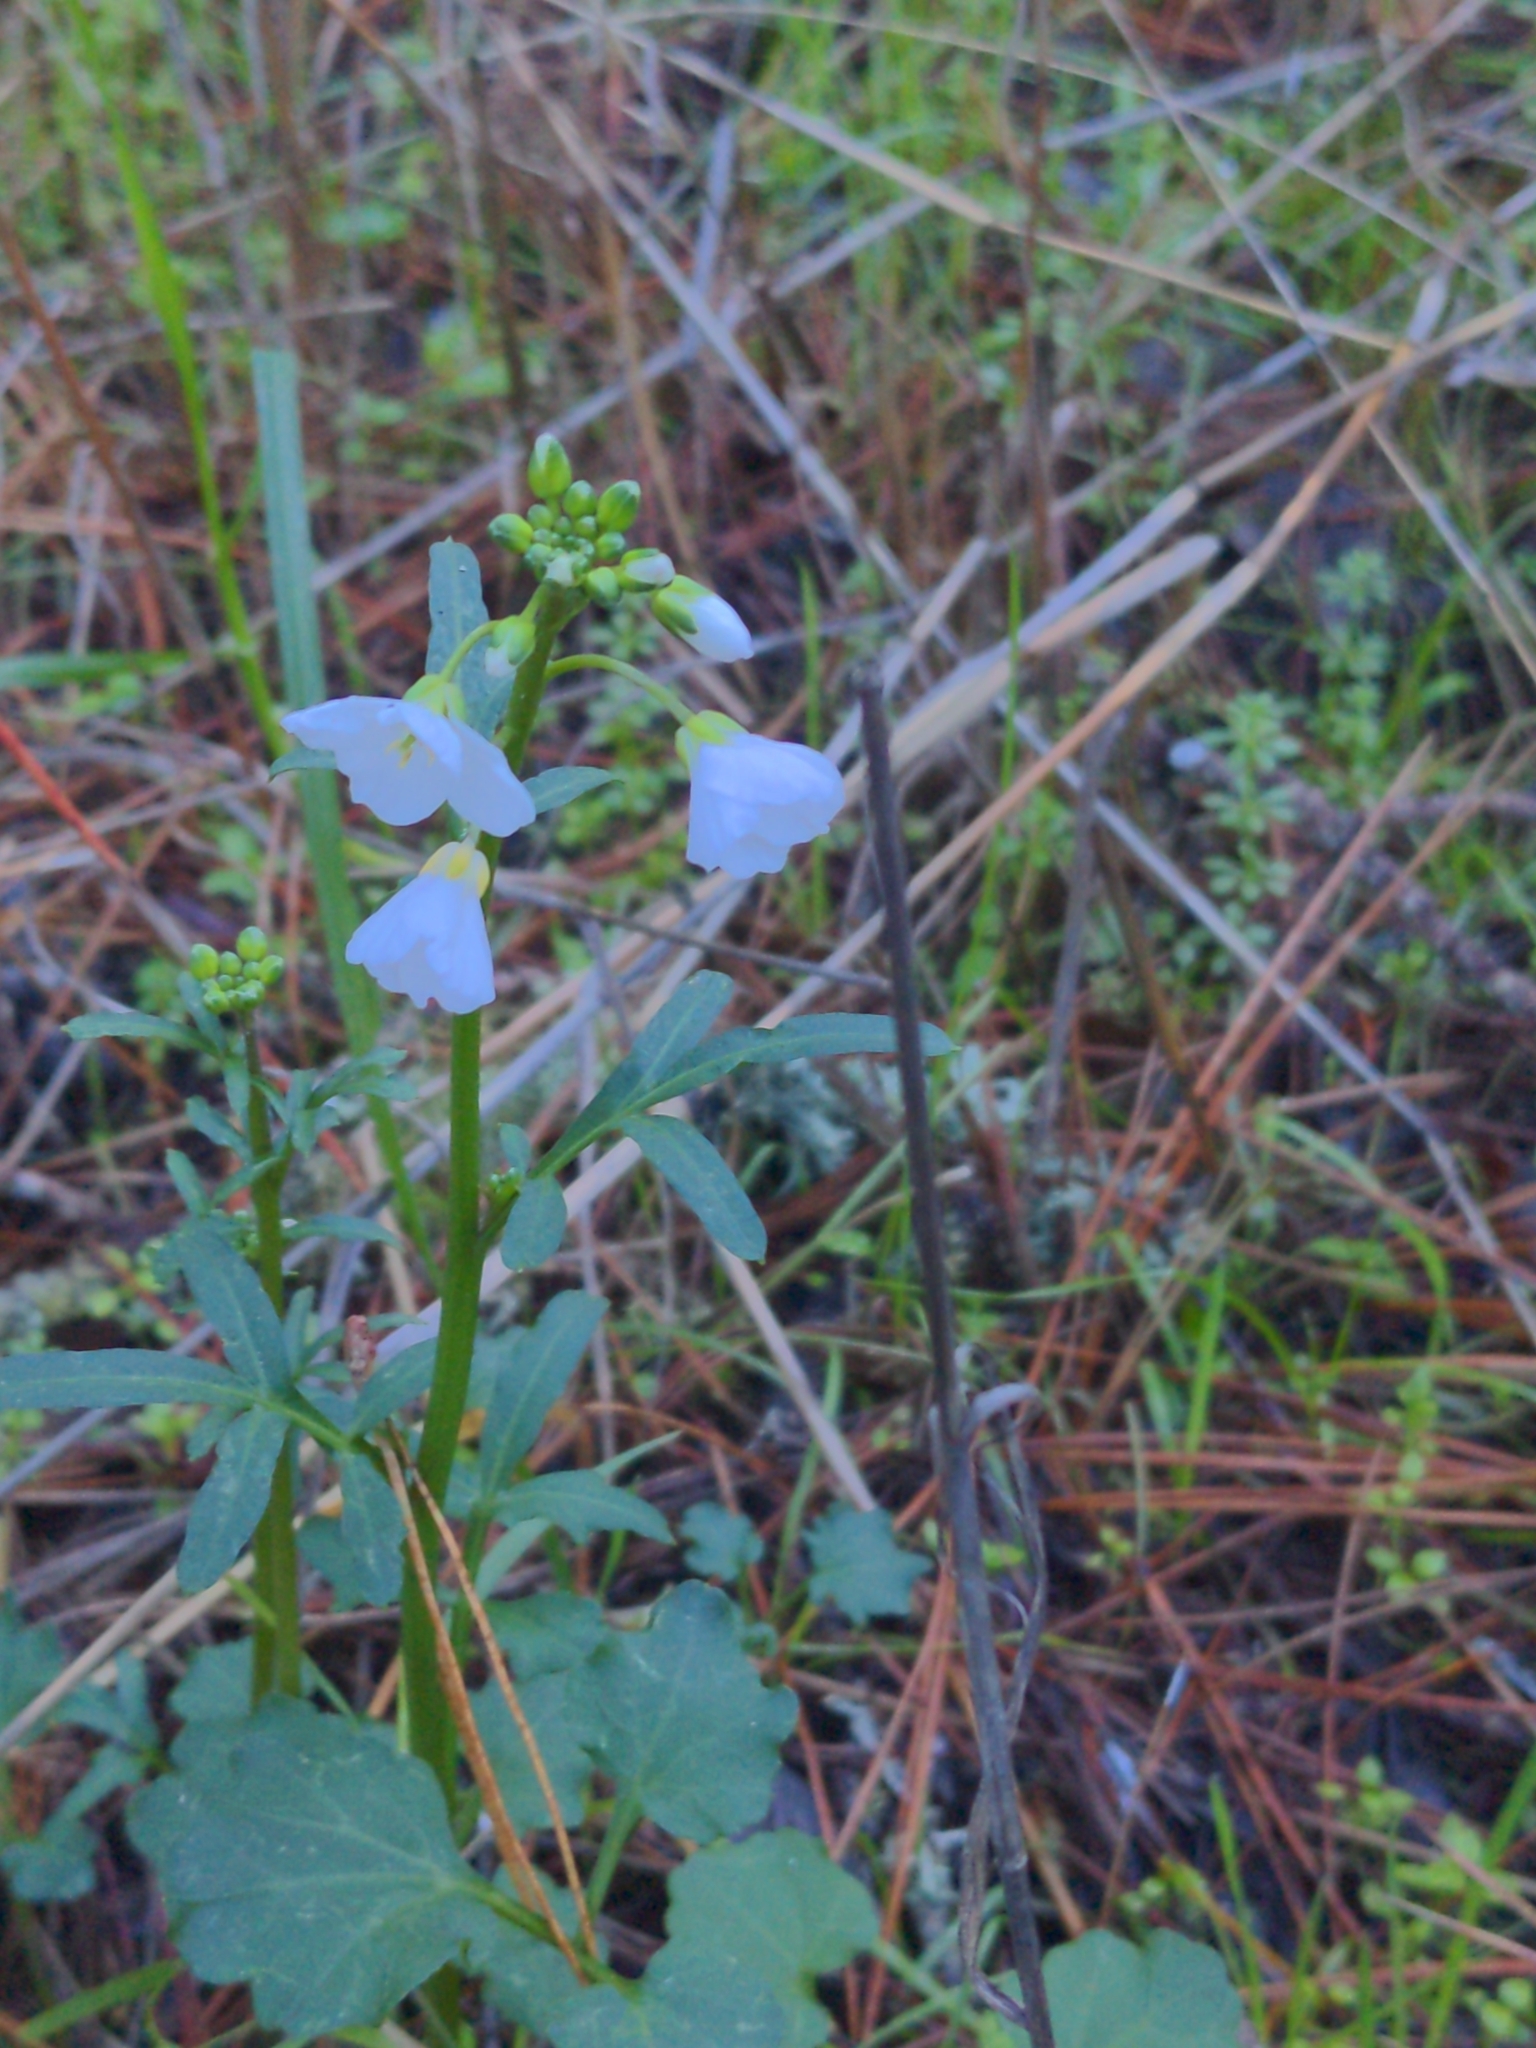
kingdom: Plantae
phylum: Tracheophyta
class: Magnoliopsida
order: Brassicales
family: Brassicaceae
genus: Cardamine
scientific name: Cardamine californica
